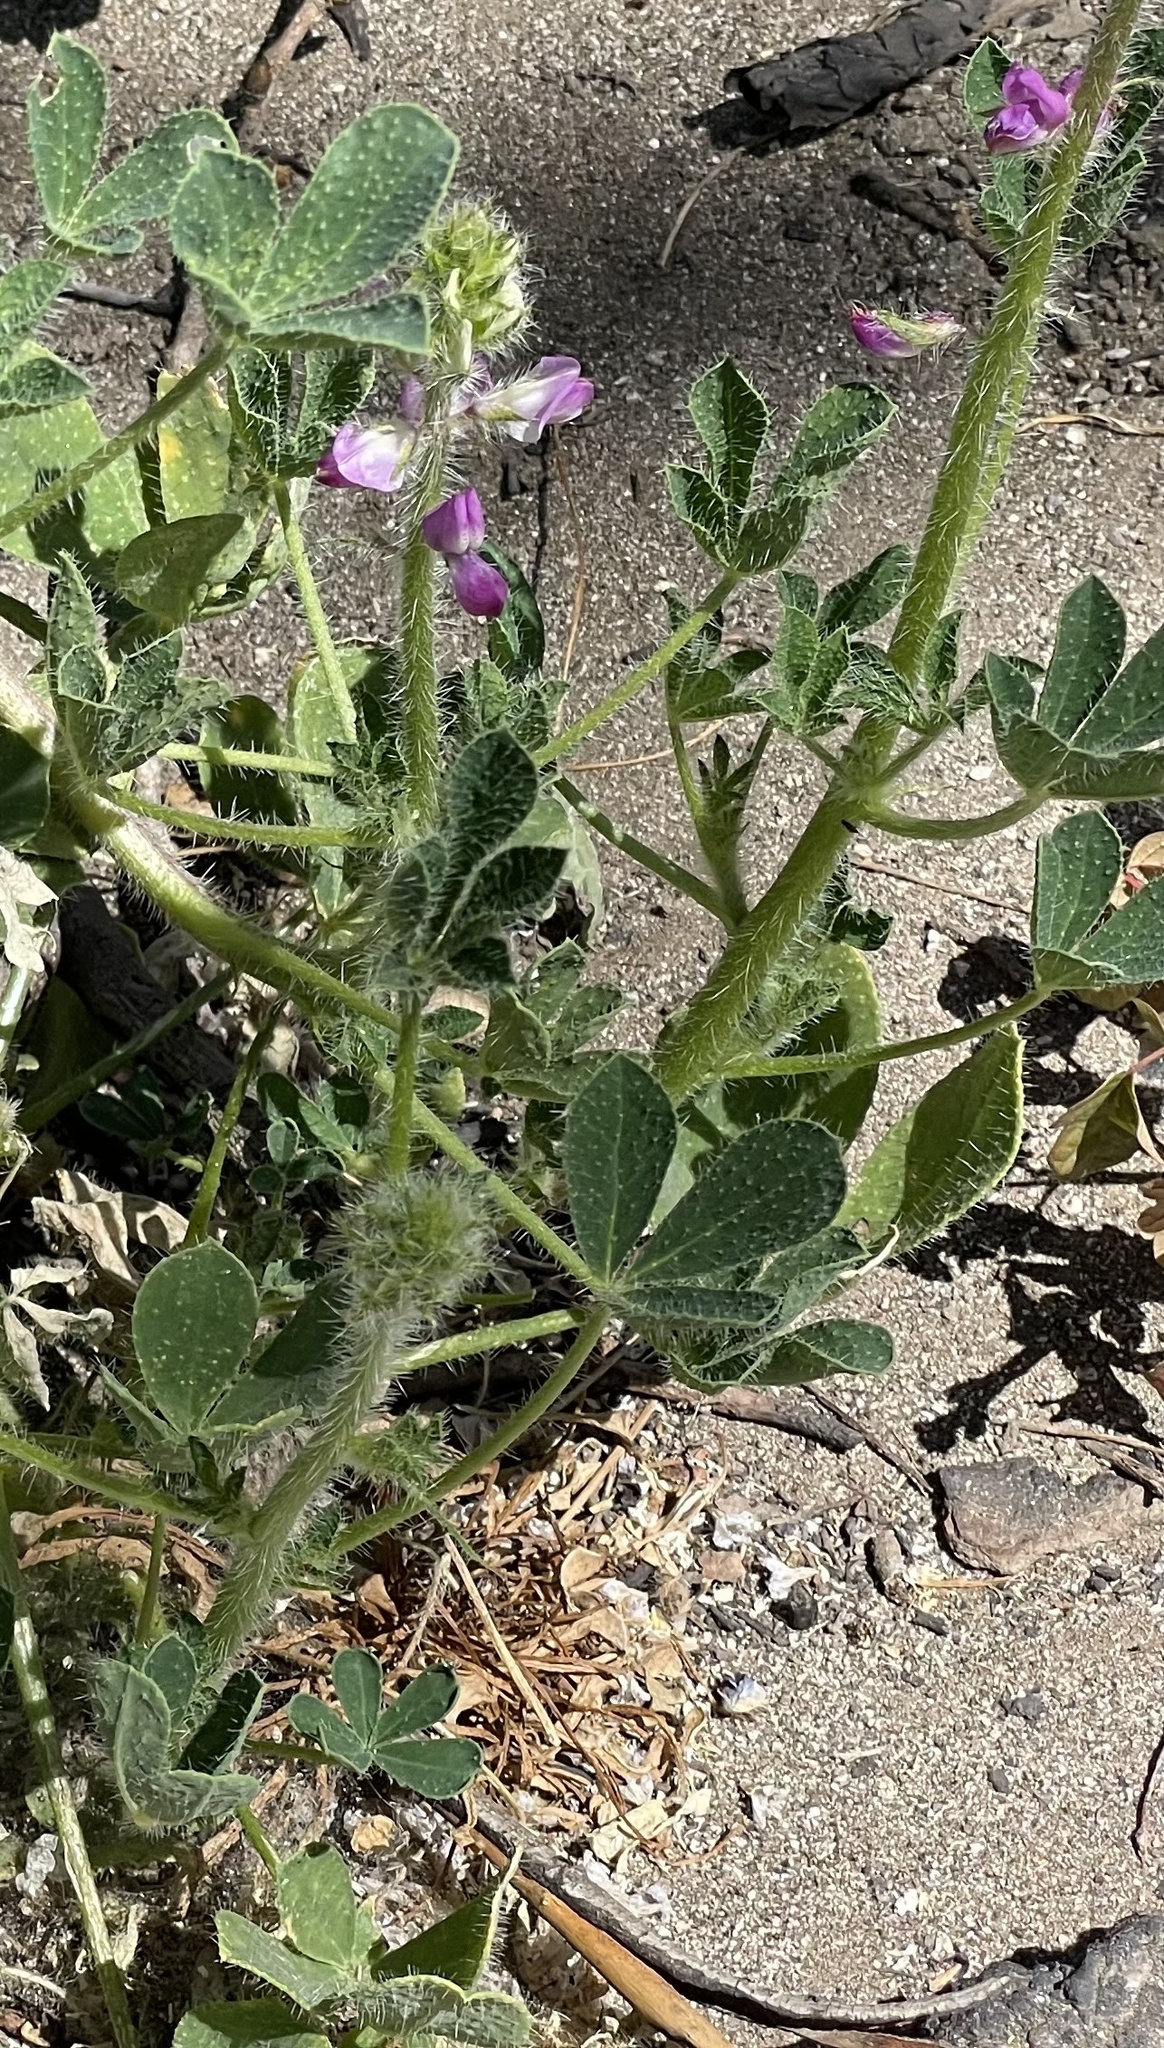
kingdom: Plantae
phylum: Tracheophyta
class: Magnoliopsida
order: Fabales
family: Fabaceae
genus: Lupinus
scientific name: Lupinus hirsutissimus
